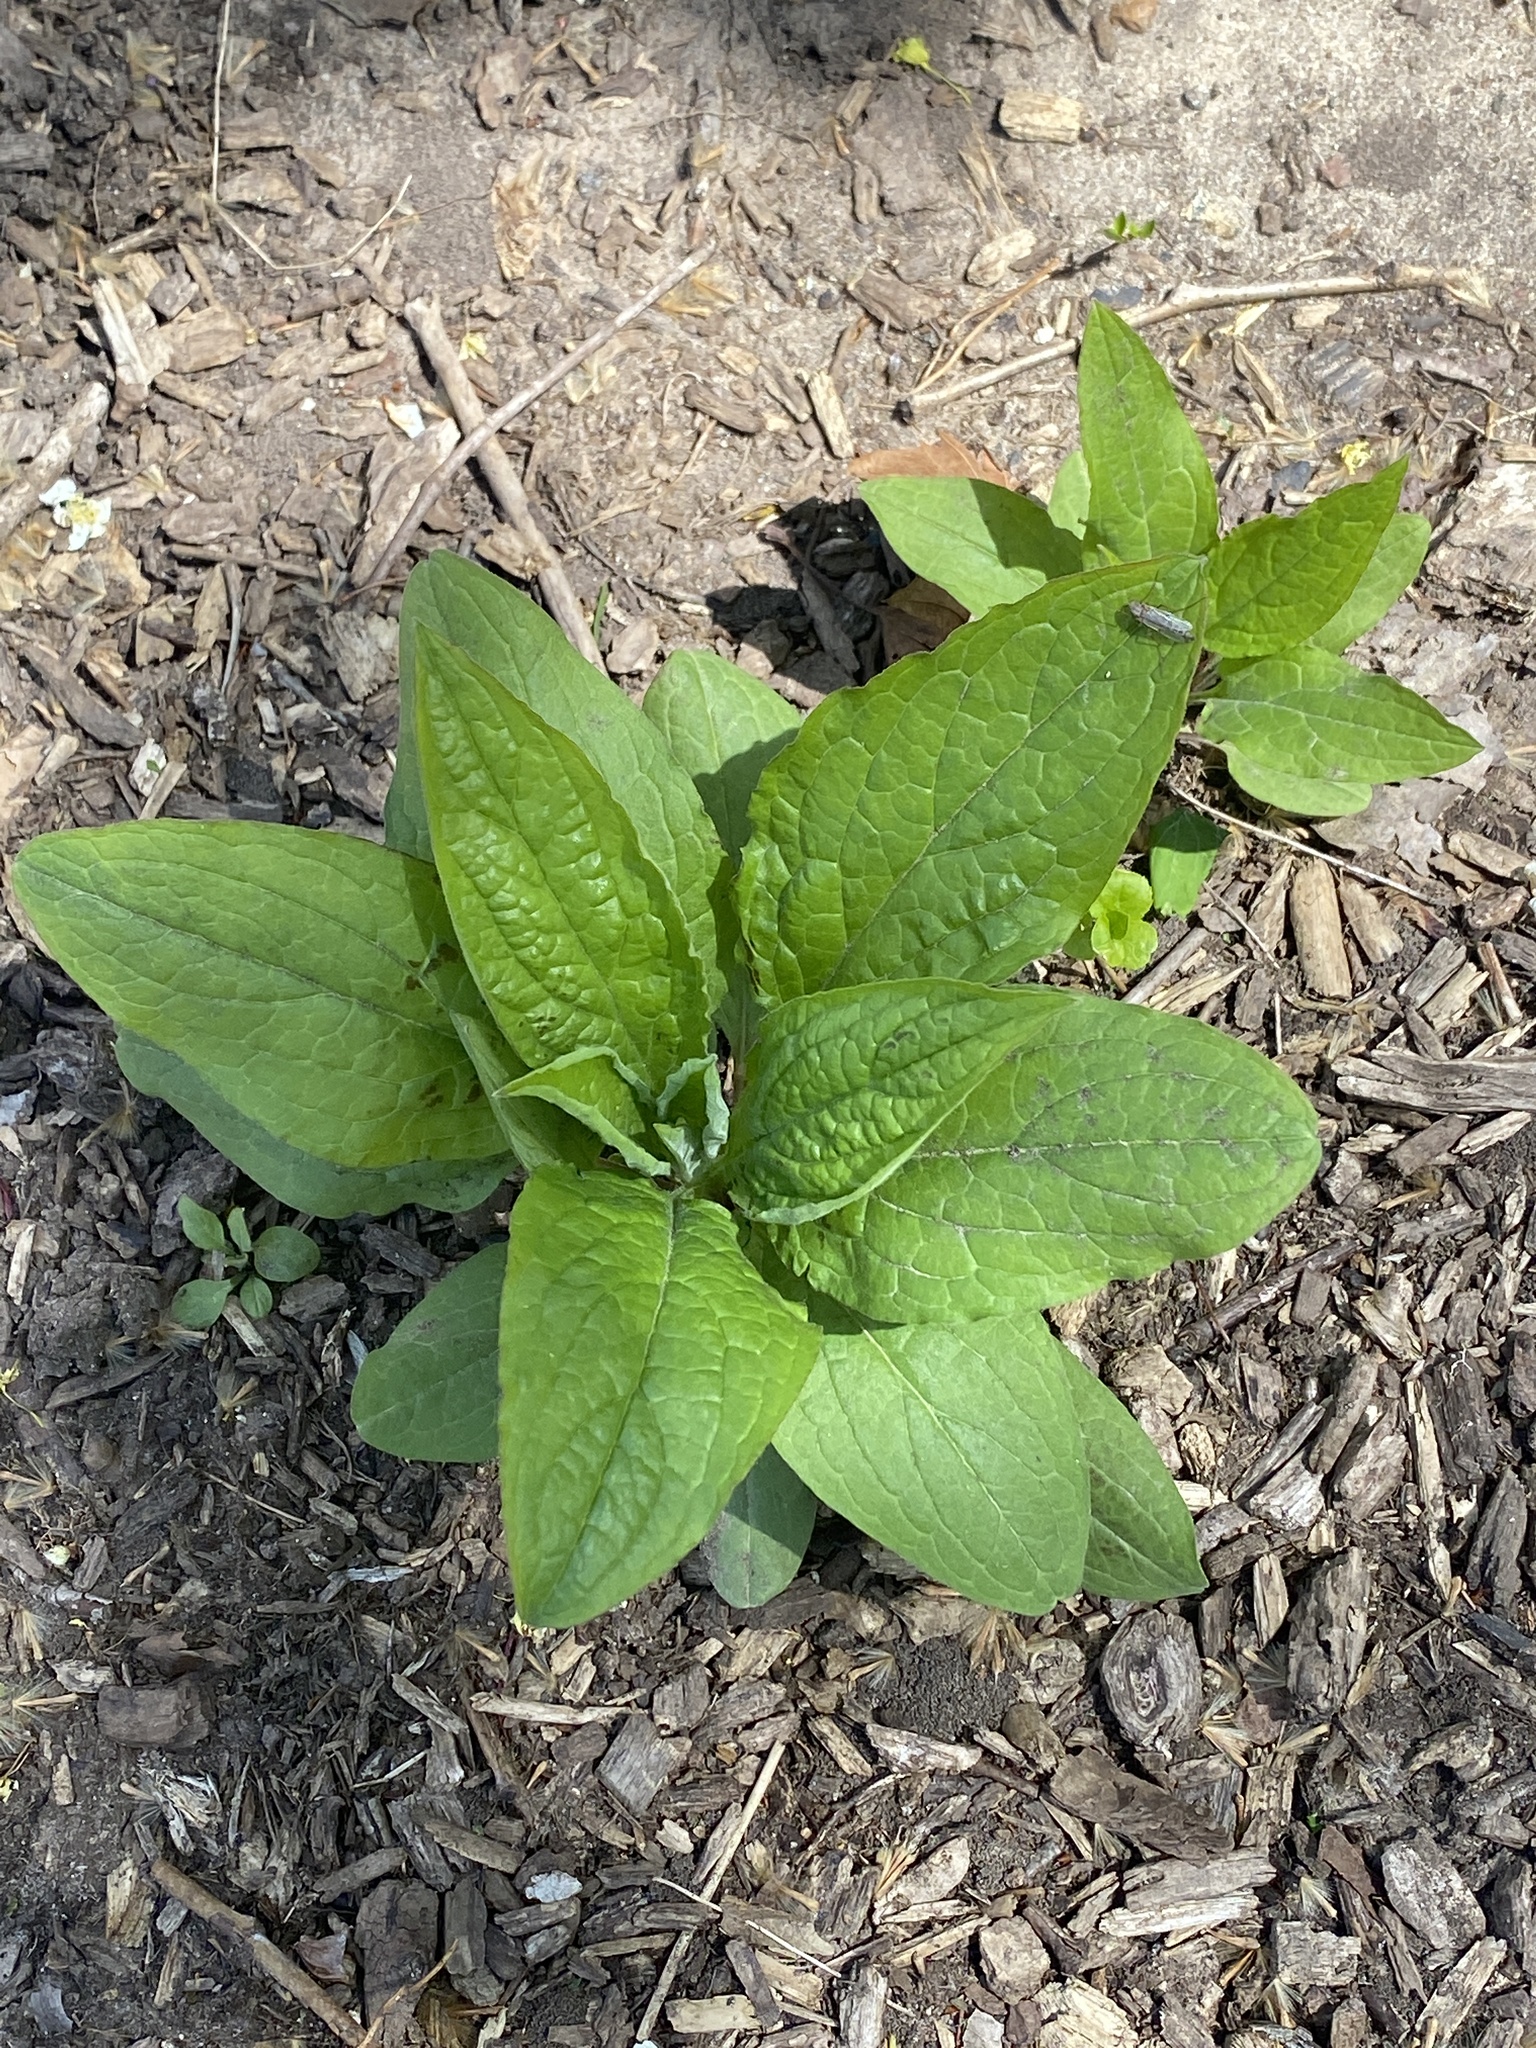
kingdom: Plantae
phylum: Tracheophyta
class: Magnoliopsida
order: Boraginales
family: Boraginaceae
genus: Hackelia
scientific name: Hackelia virginiana
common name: Beggar's-lice
